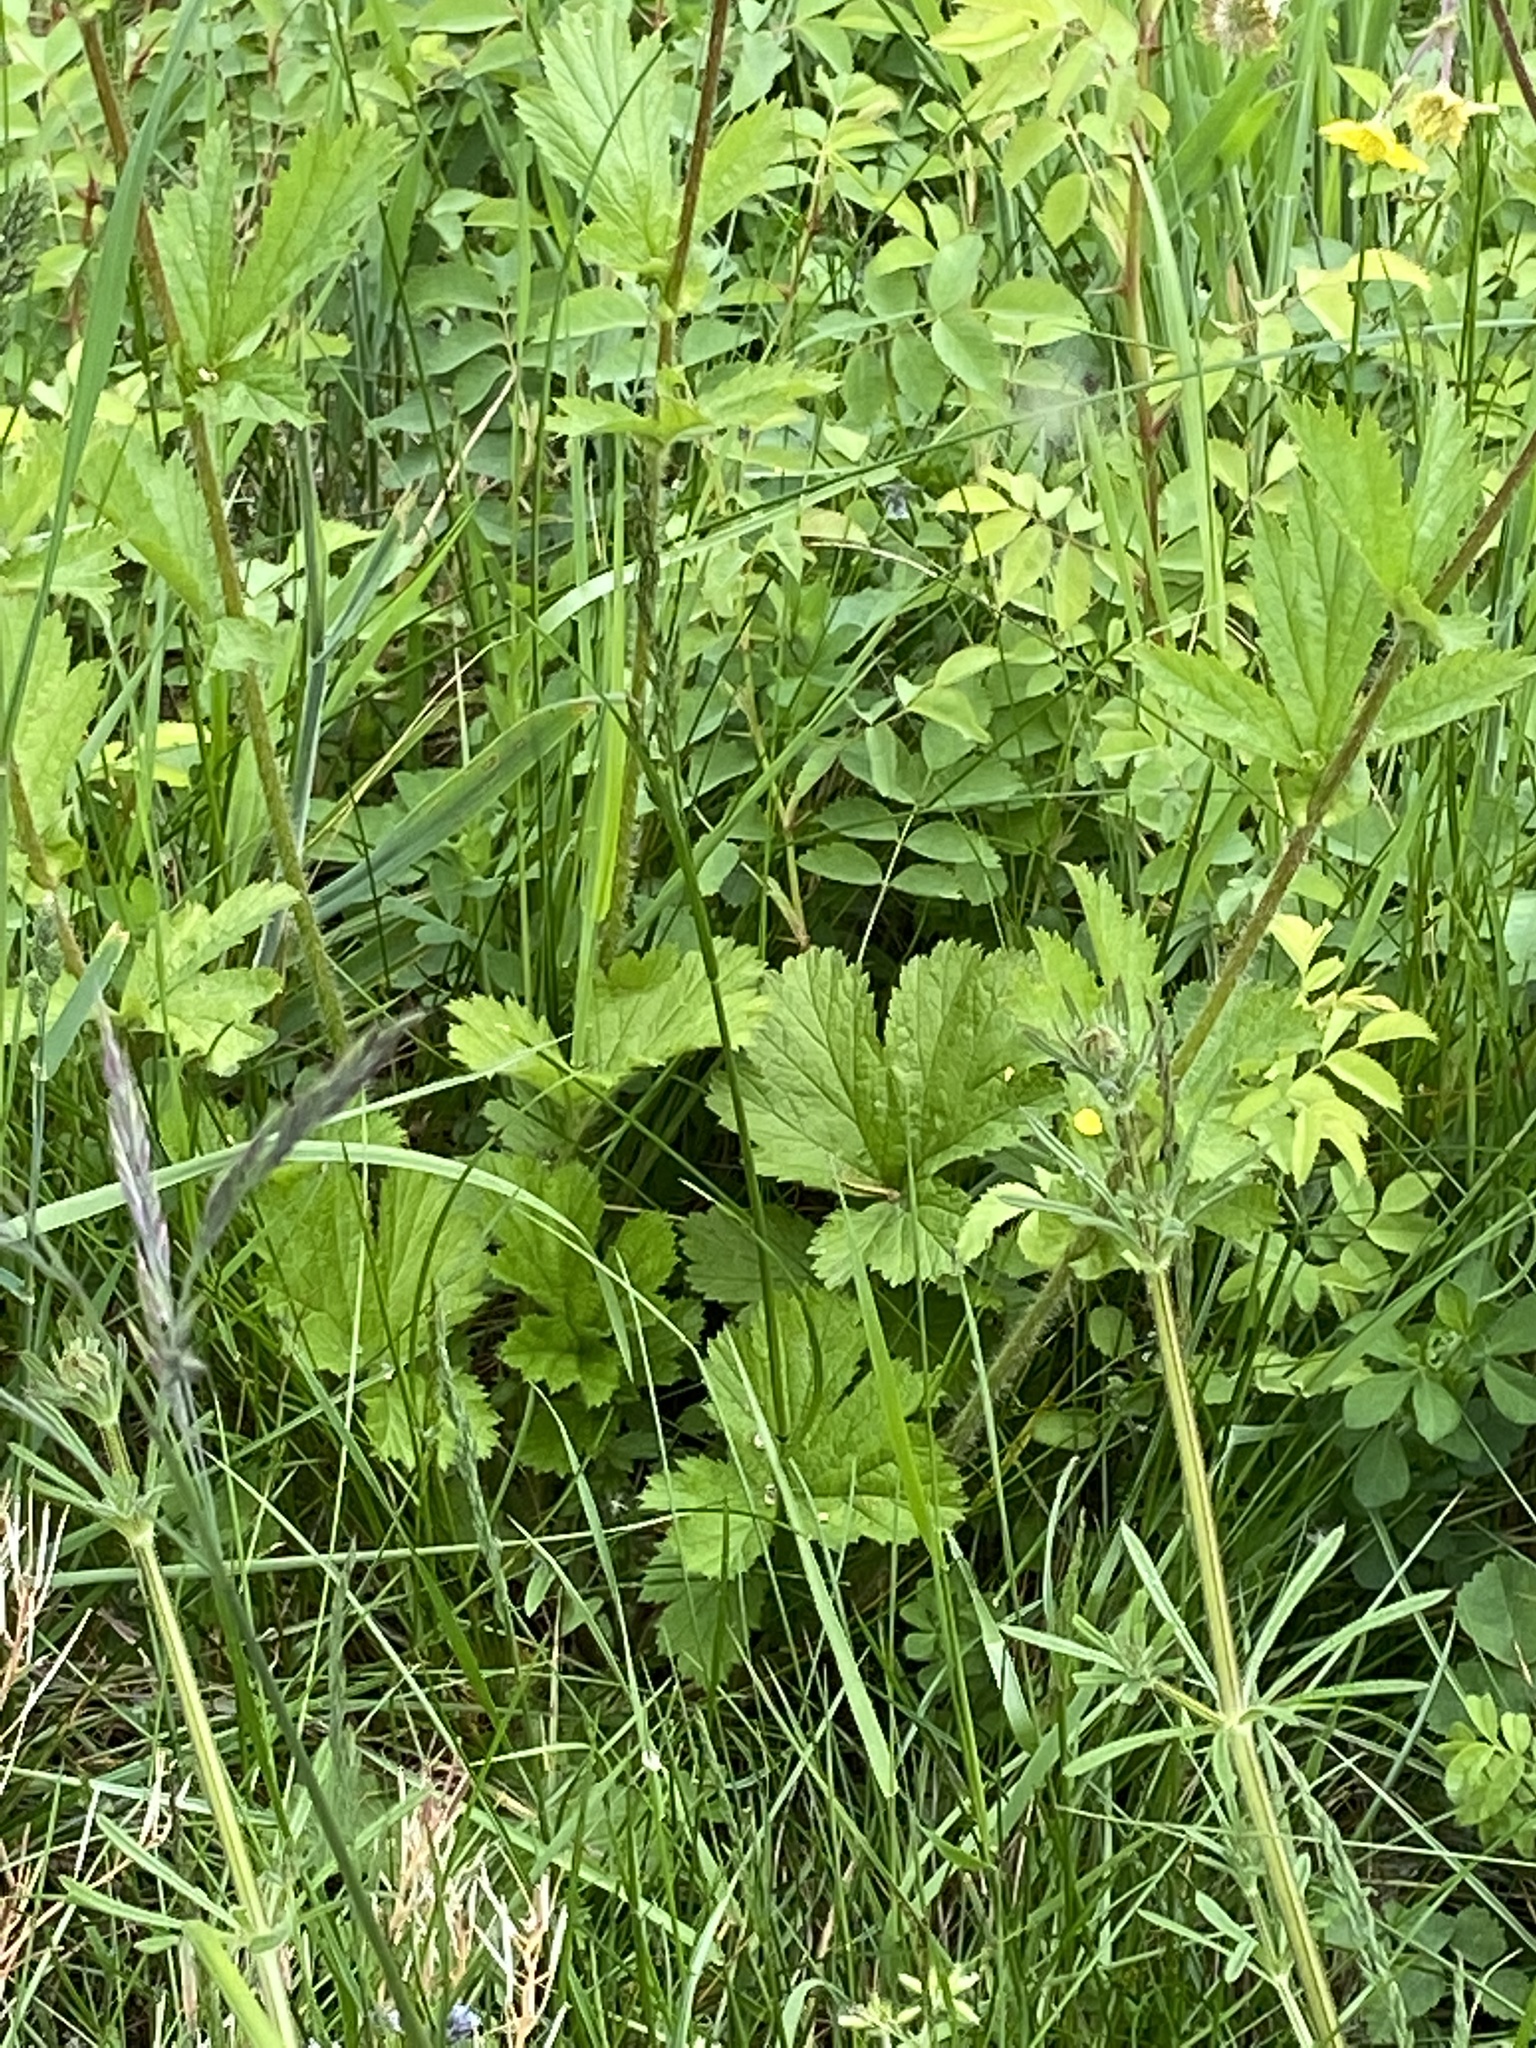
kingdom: Plantae
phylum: Tracheophyta
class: Magnoliopsida
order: Rosales
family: Rosaceae
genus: Geum
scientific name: Geum macrophyllum
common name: Large-leaved avens
